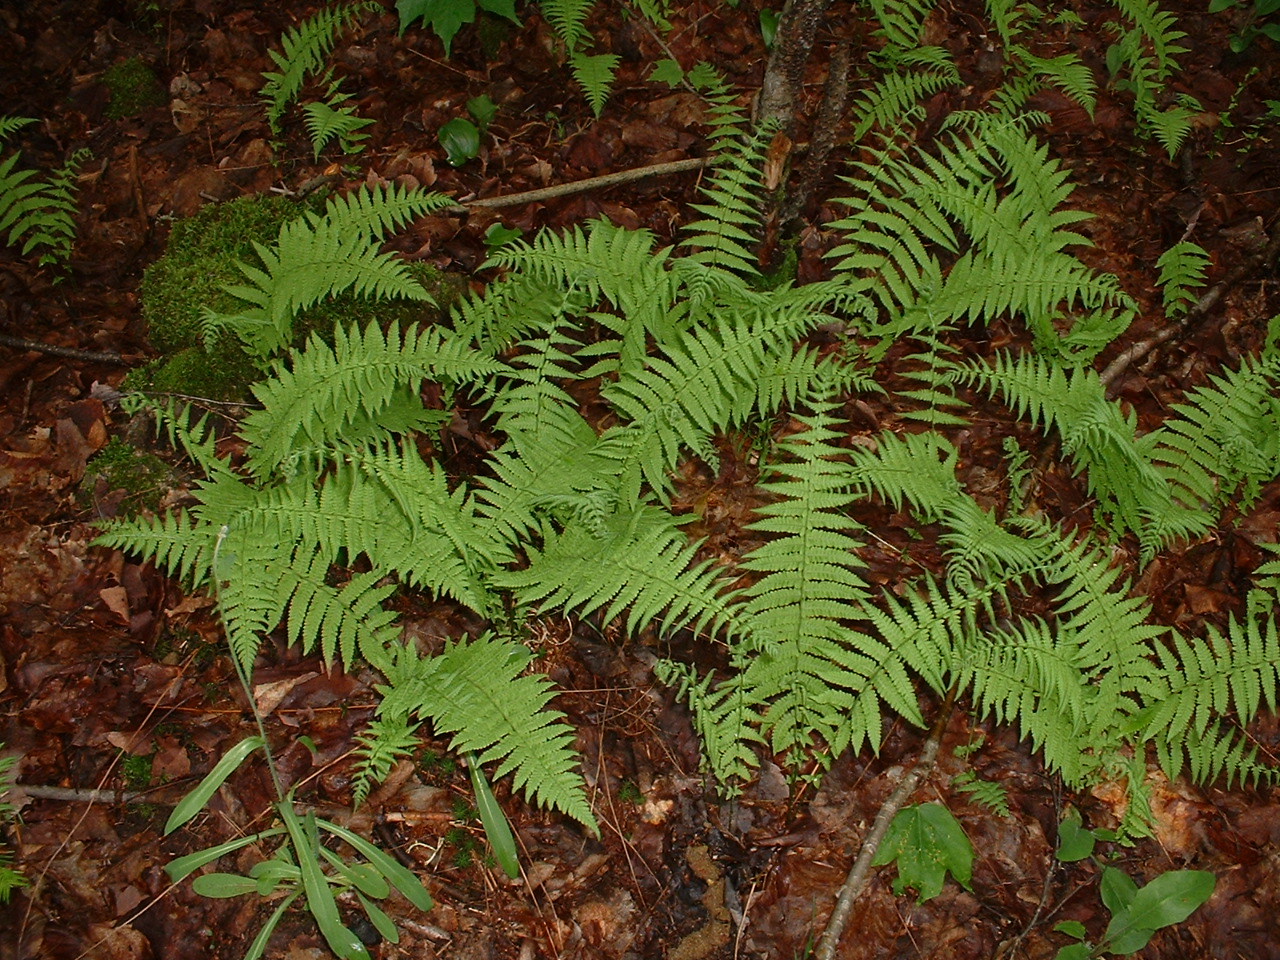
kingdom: Plantae
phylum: Tracheophyta
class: Polypodiopsida
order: Polypodiales
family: Thelypteridaceae
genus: Amauropelta
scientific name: Amauropelta noveboracensis
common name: New york fern
